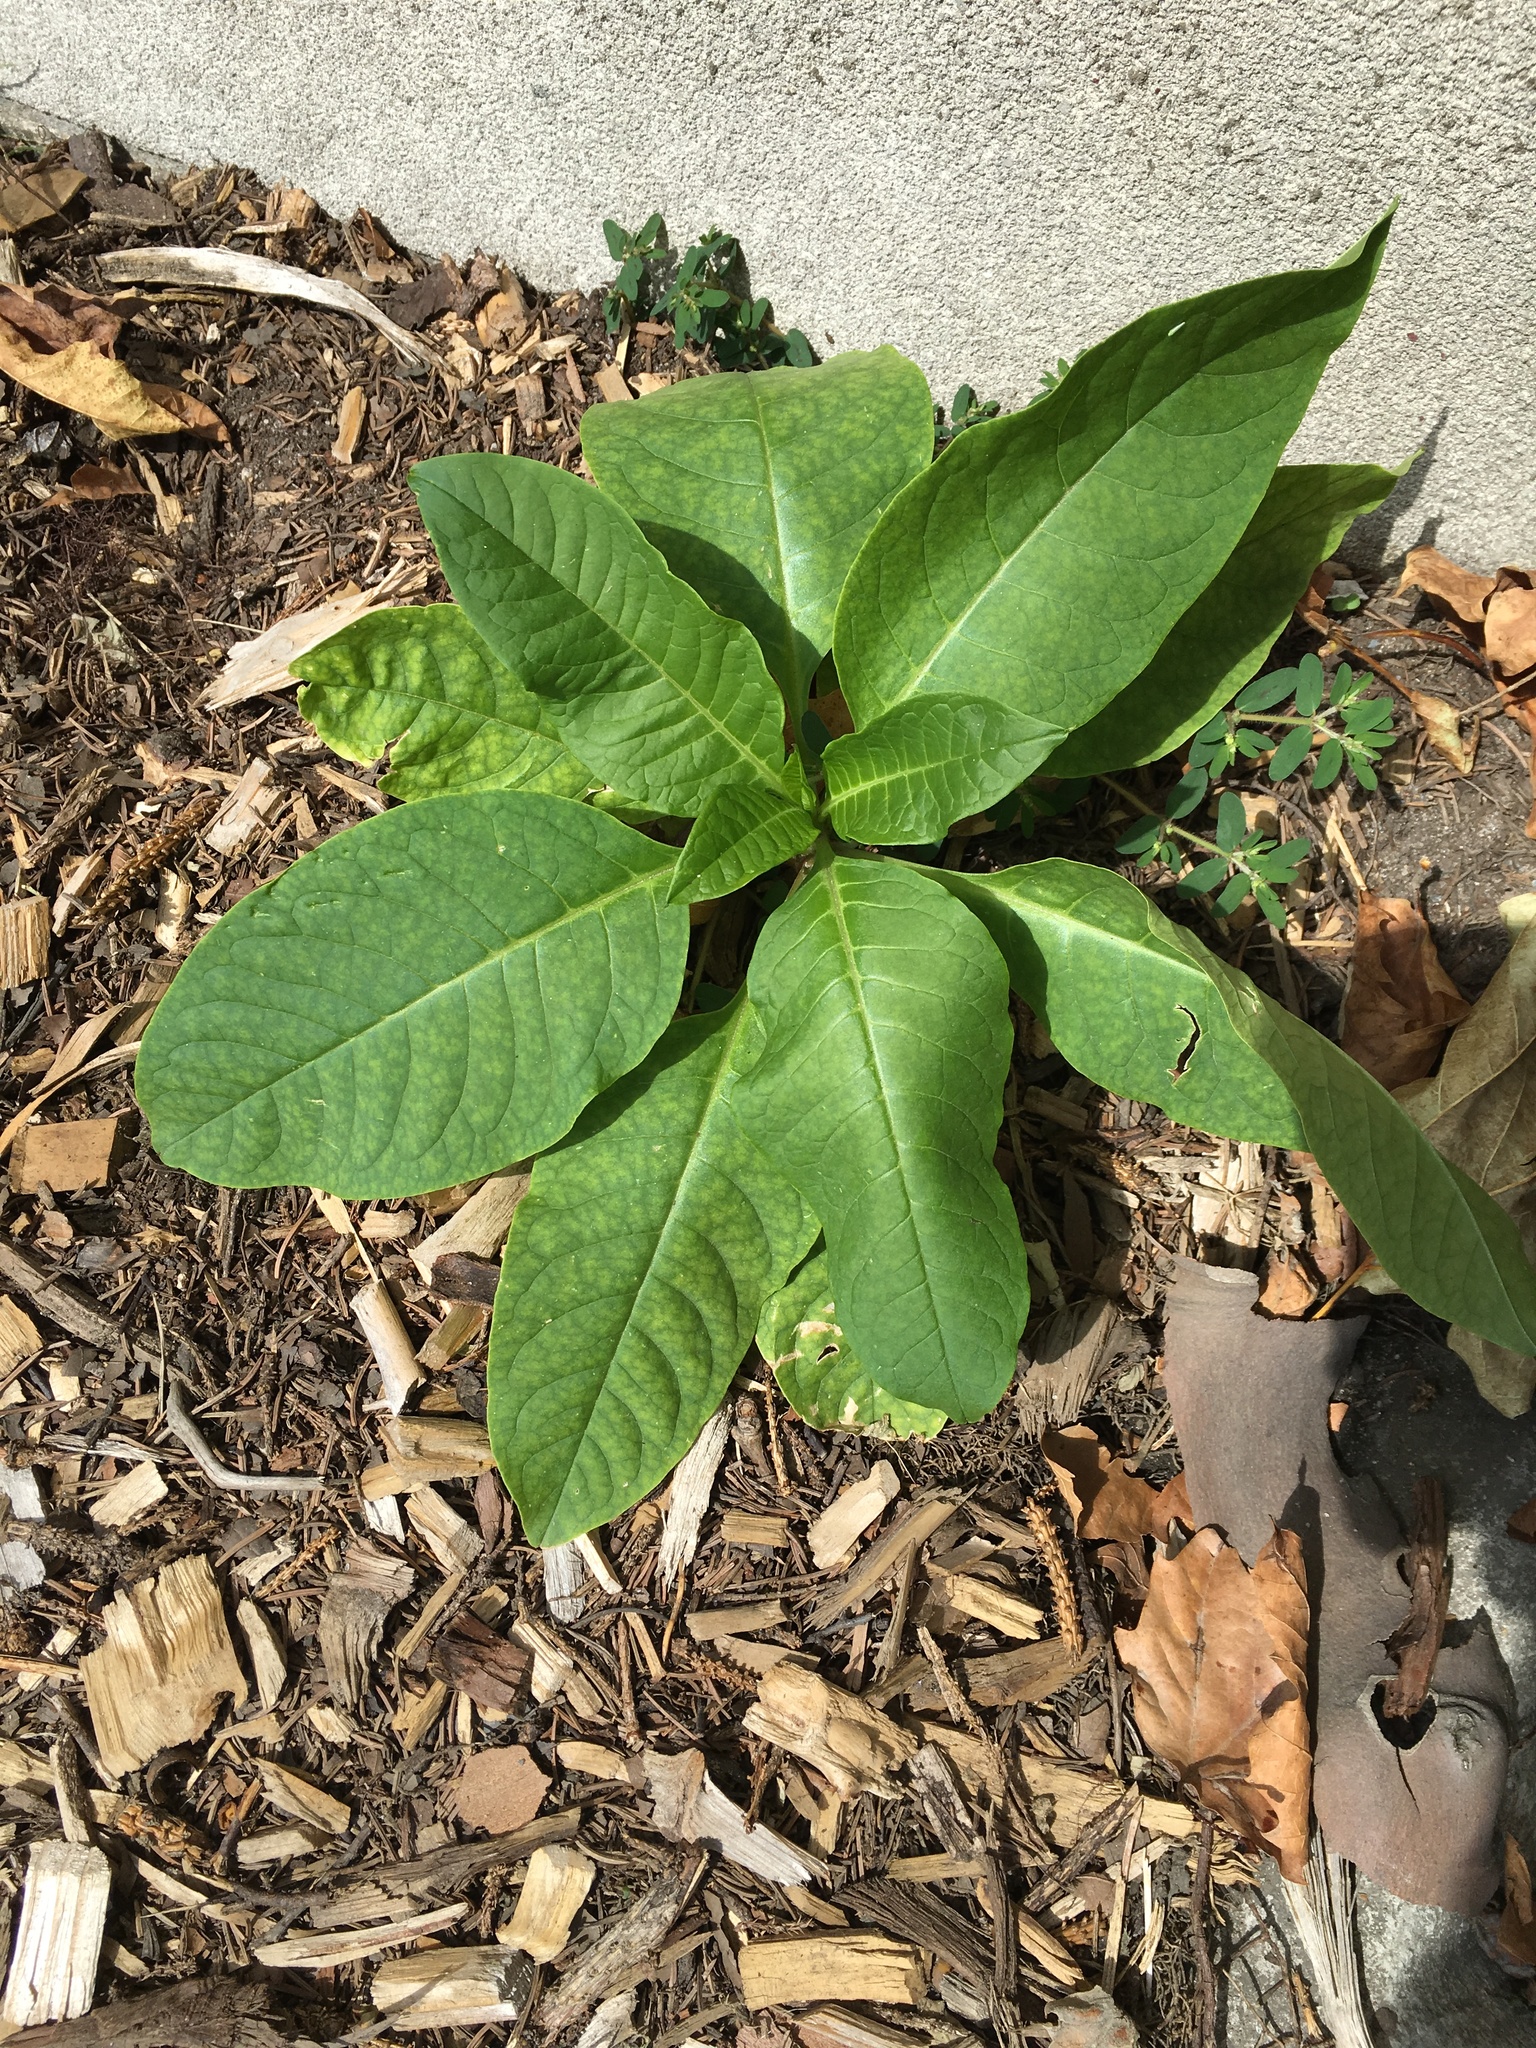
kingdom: Plantae
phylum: Tracheophyta
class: Magnoliopsida
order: Caryophyllales
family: Phytolaccaceae
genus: Phytolacca
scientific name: Phytolacca americana
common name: American pokeweed
